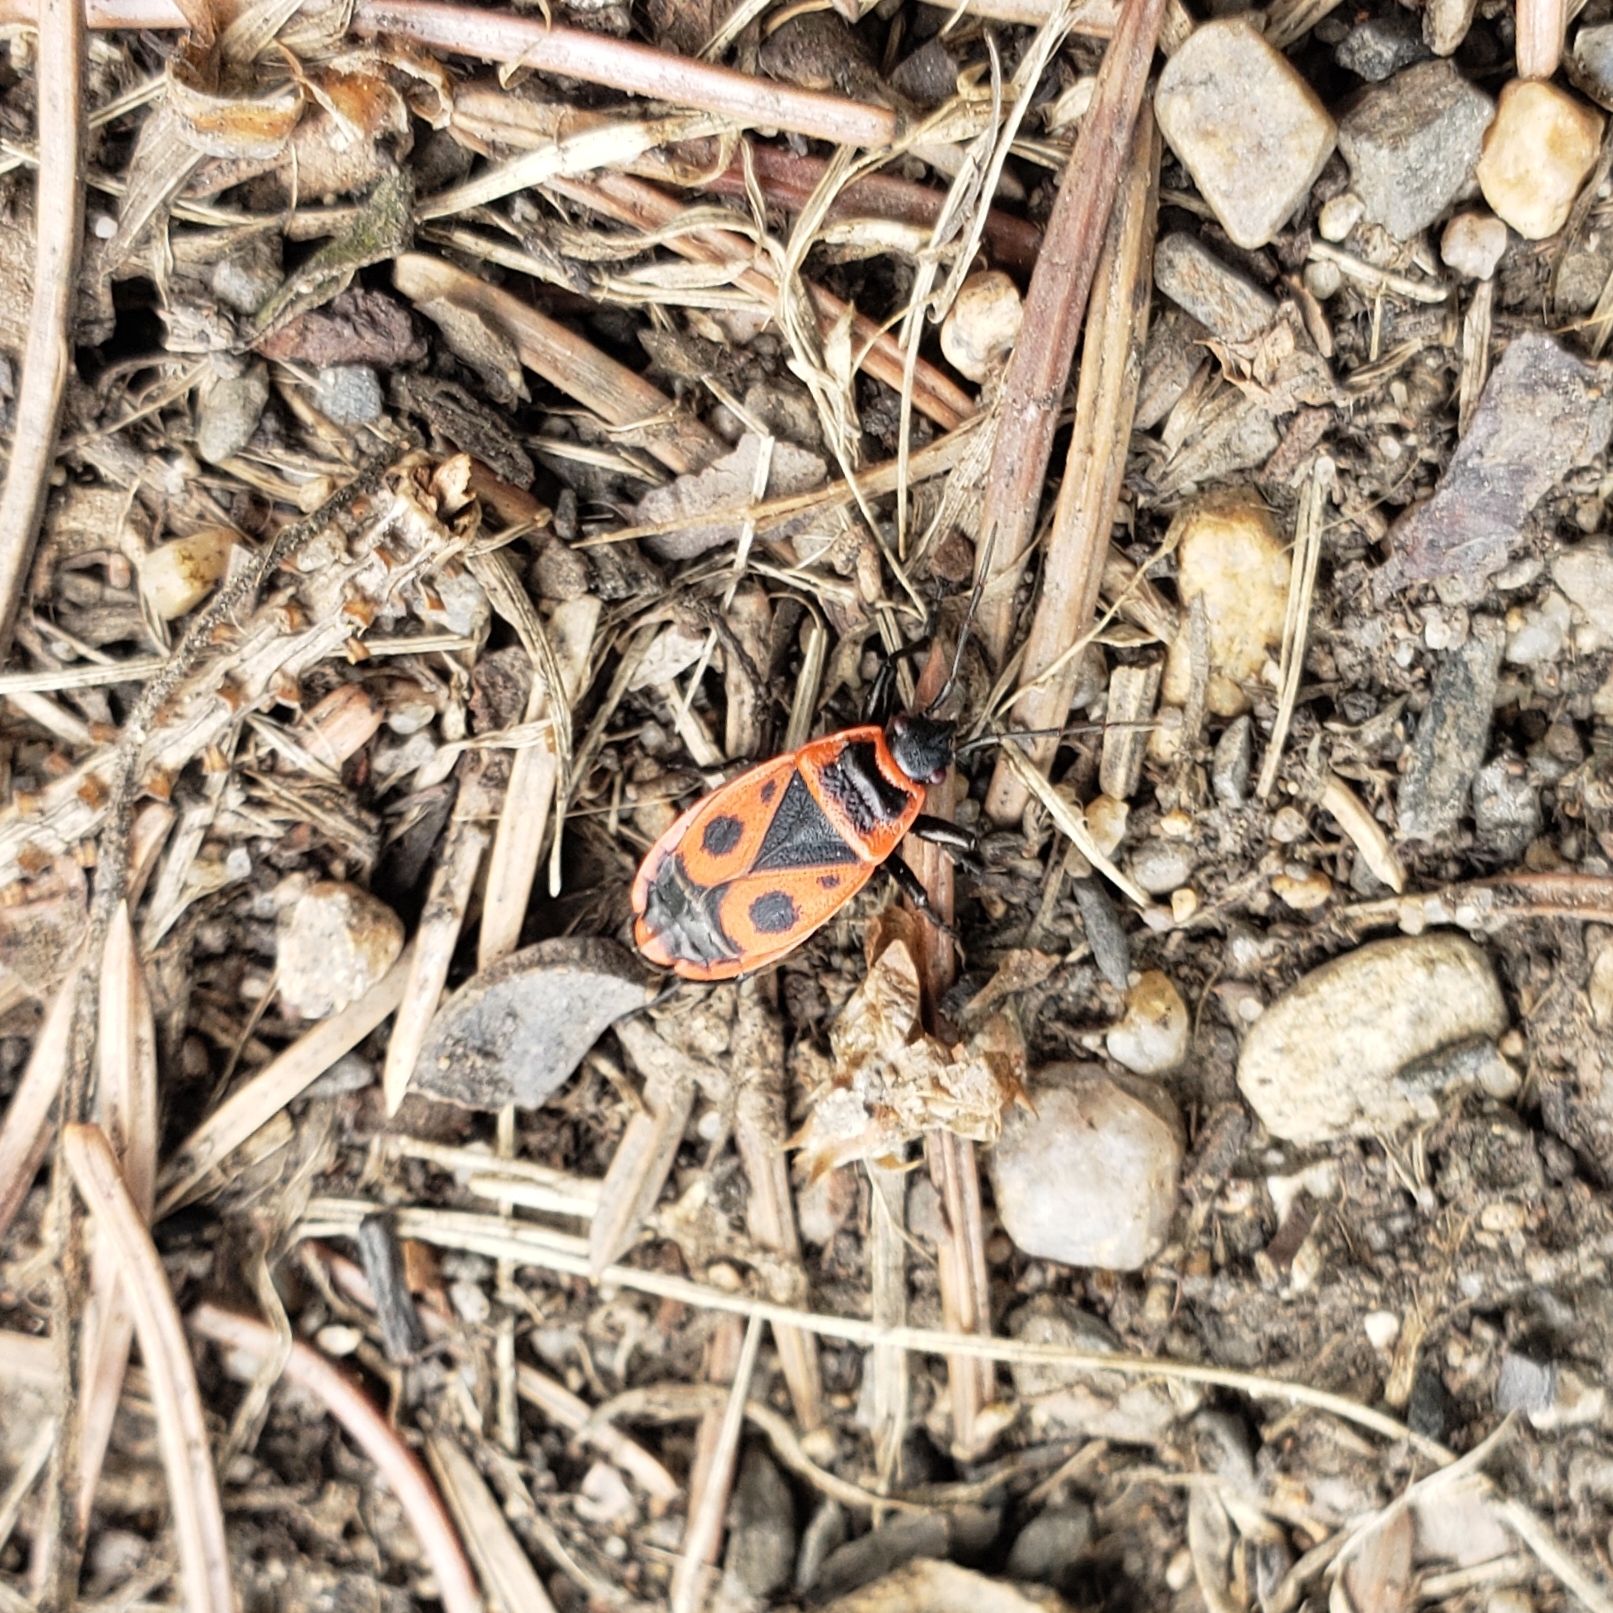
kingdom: Animalia
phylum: Arthropoda
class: Insecta
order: Hemiptera
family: Pyrrhocoridae
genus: Pyrrhocoris
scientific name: Pyrrhocoris apterus
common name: Firebug
